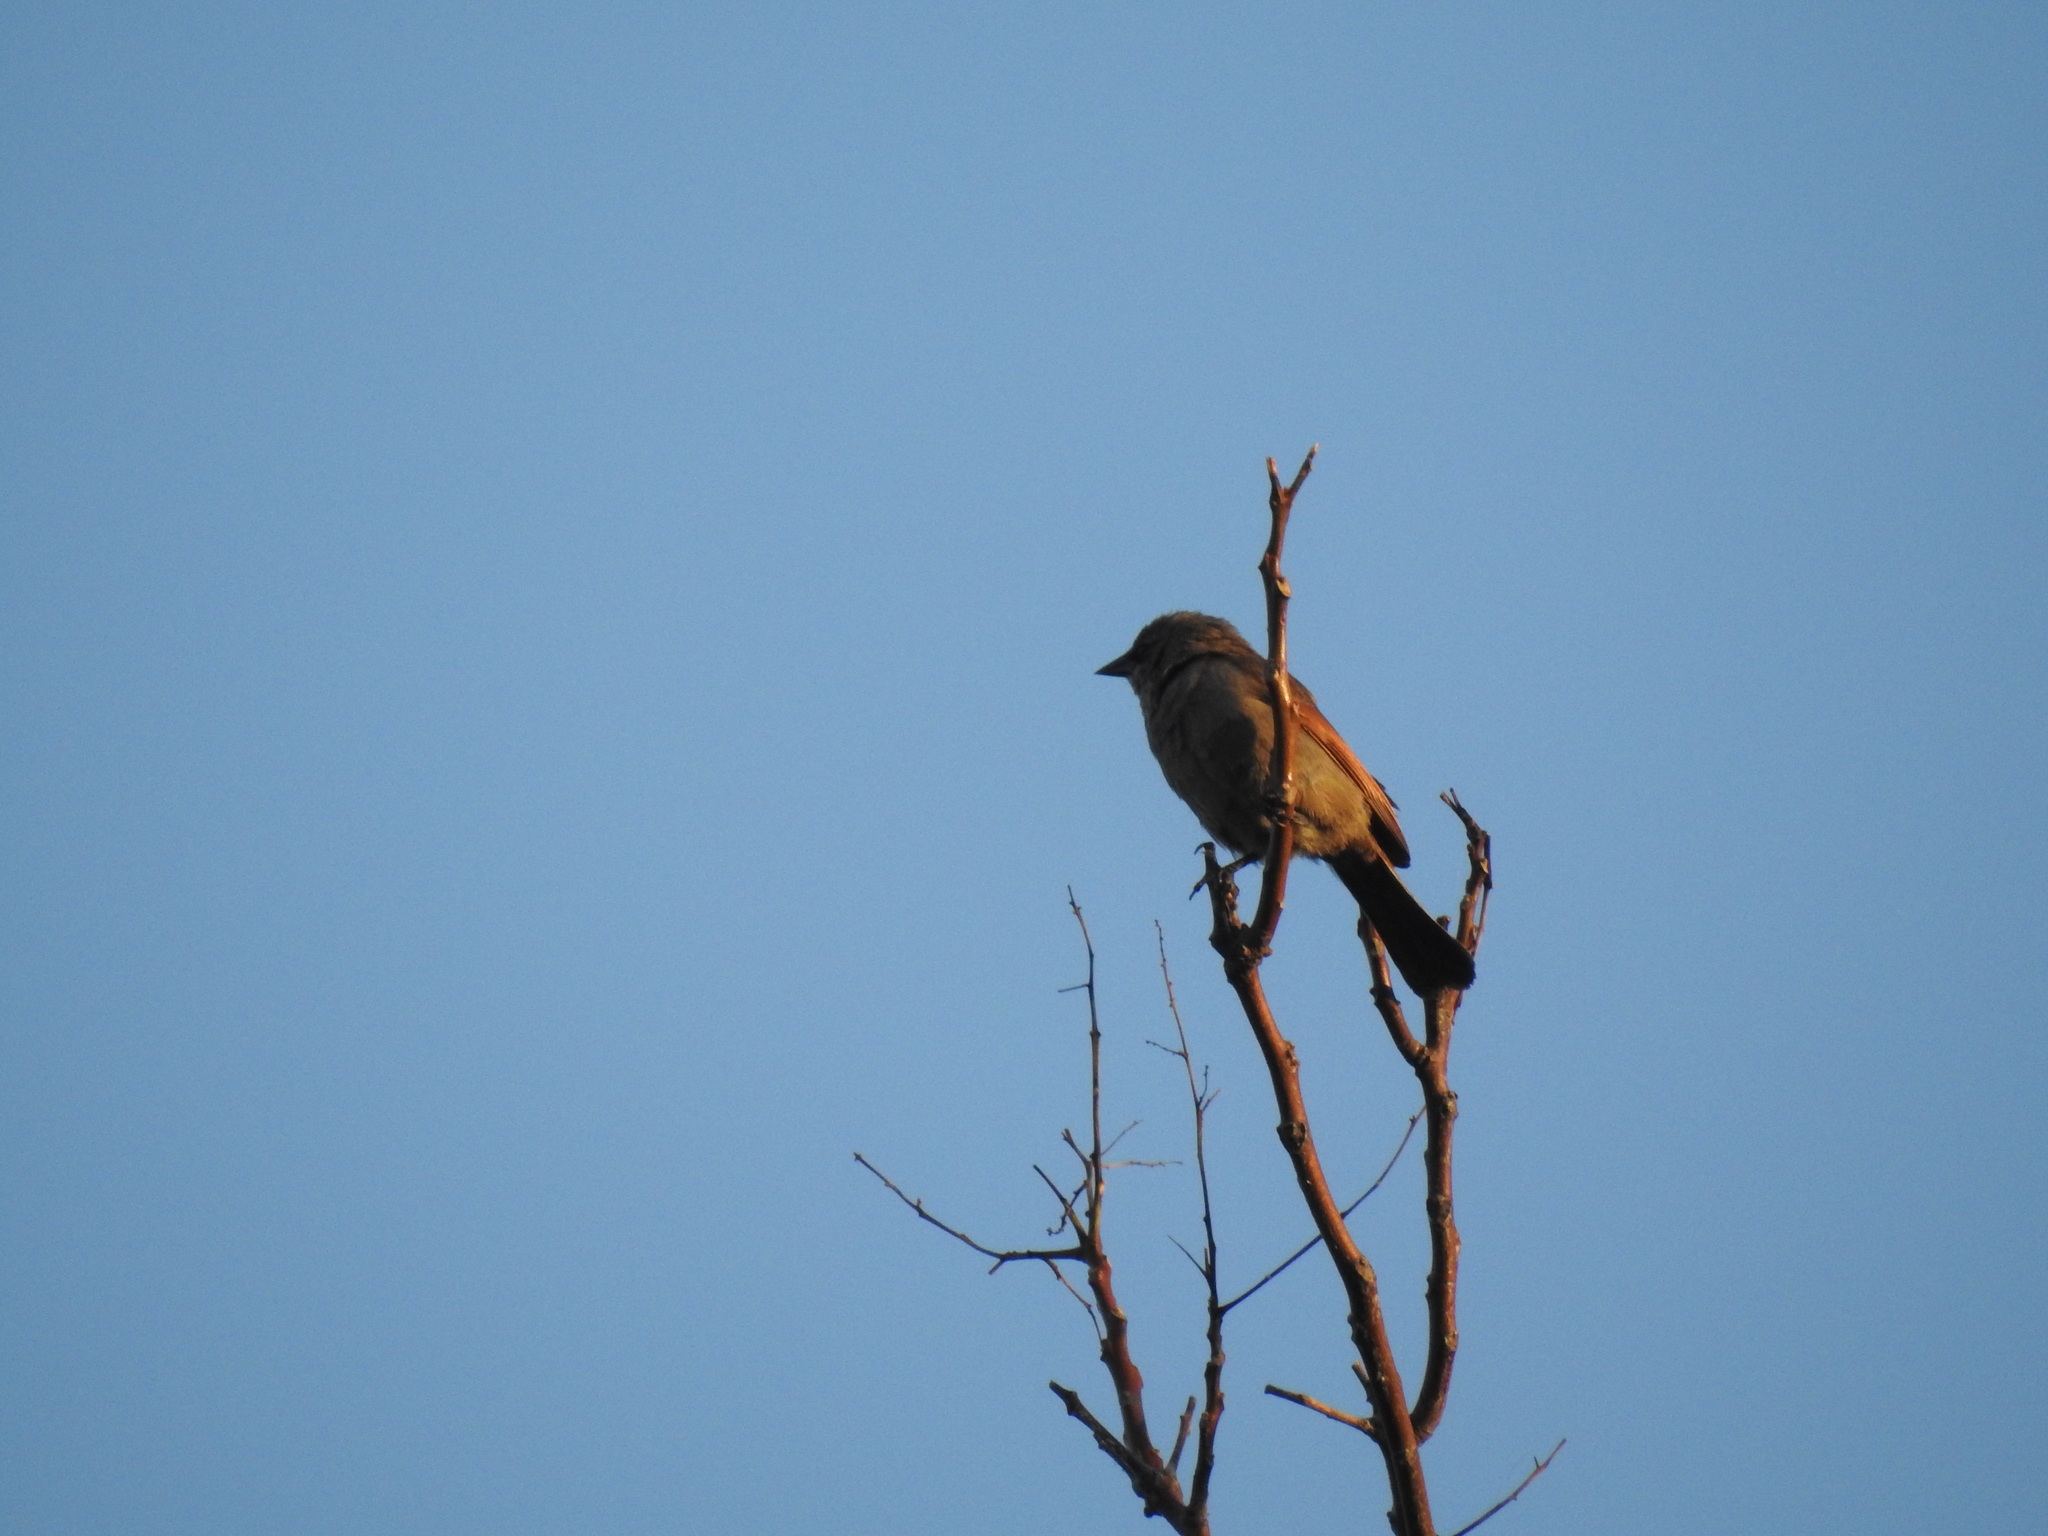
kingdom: Animalia
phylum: Chordata
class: Aves
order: Passeriformes
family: Icteridae
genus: Agelaioides
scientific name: Agelaioides badius
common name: Baywing
